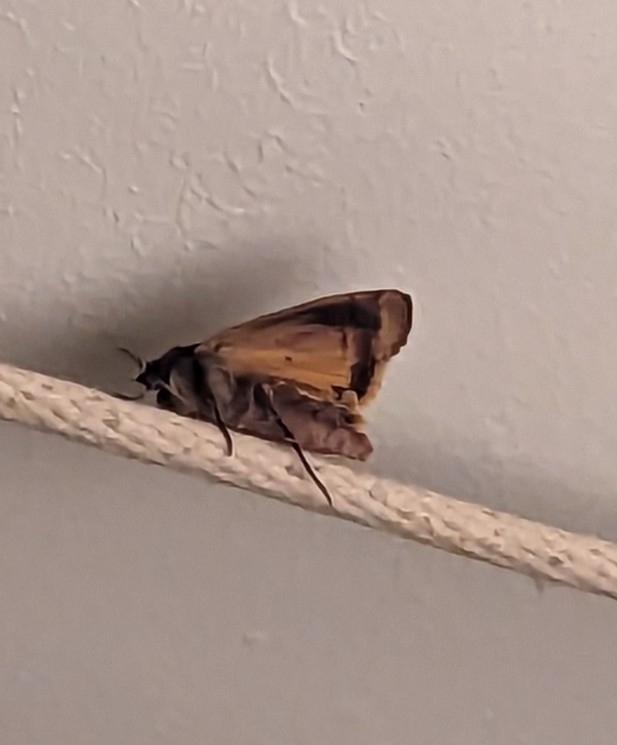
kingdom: Animalia
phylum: Arthropoda
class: Insecta
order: Lepidoptera
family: Noctuidae
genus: Noctua
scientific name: Noctua pronuba
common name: Large yellow underwing
